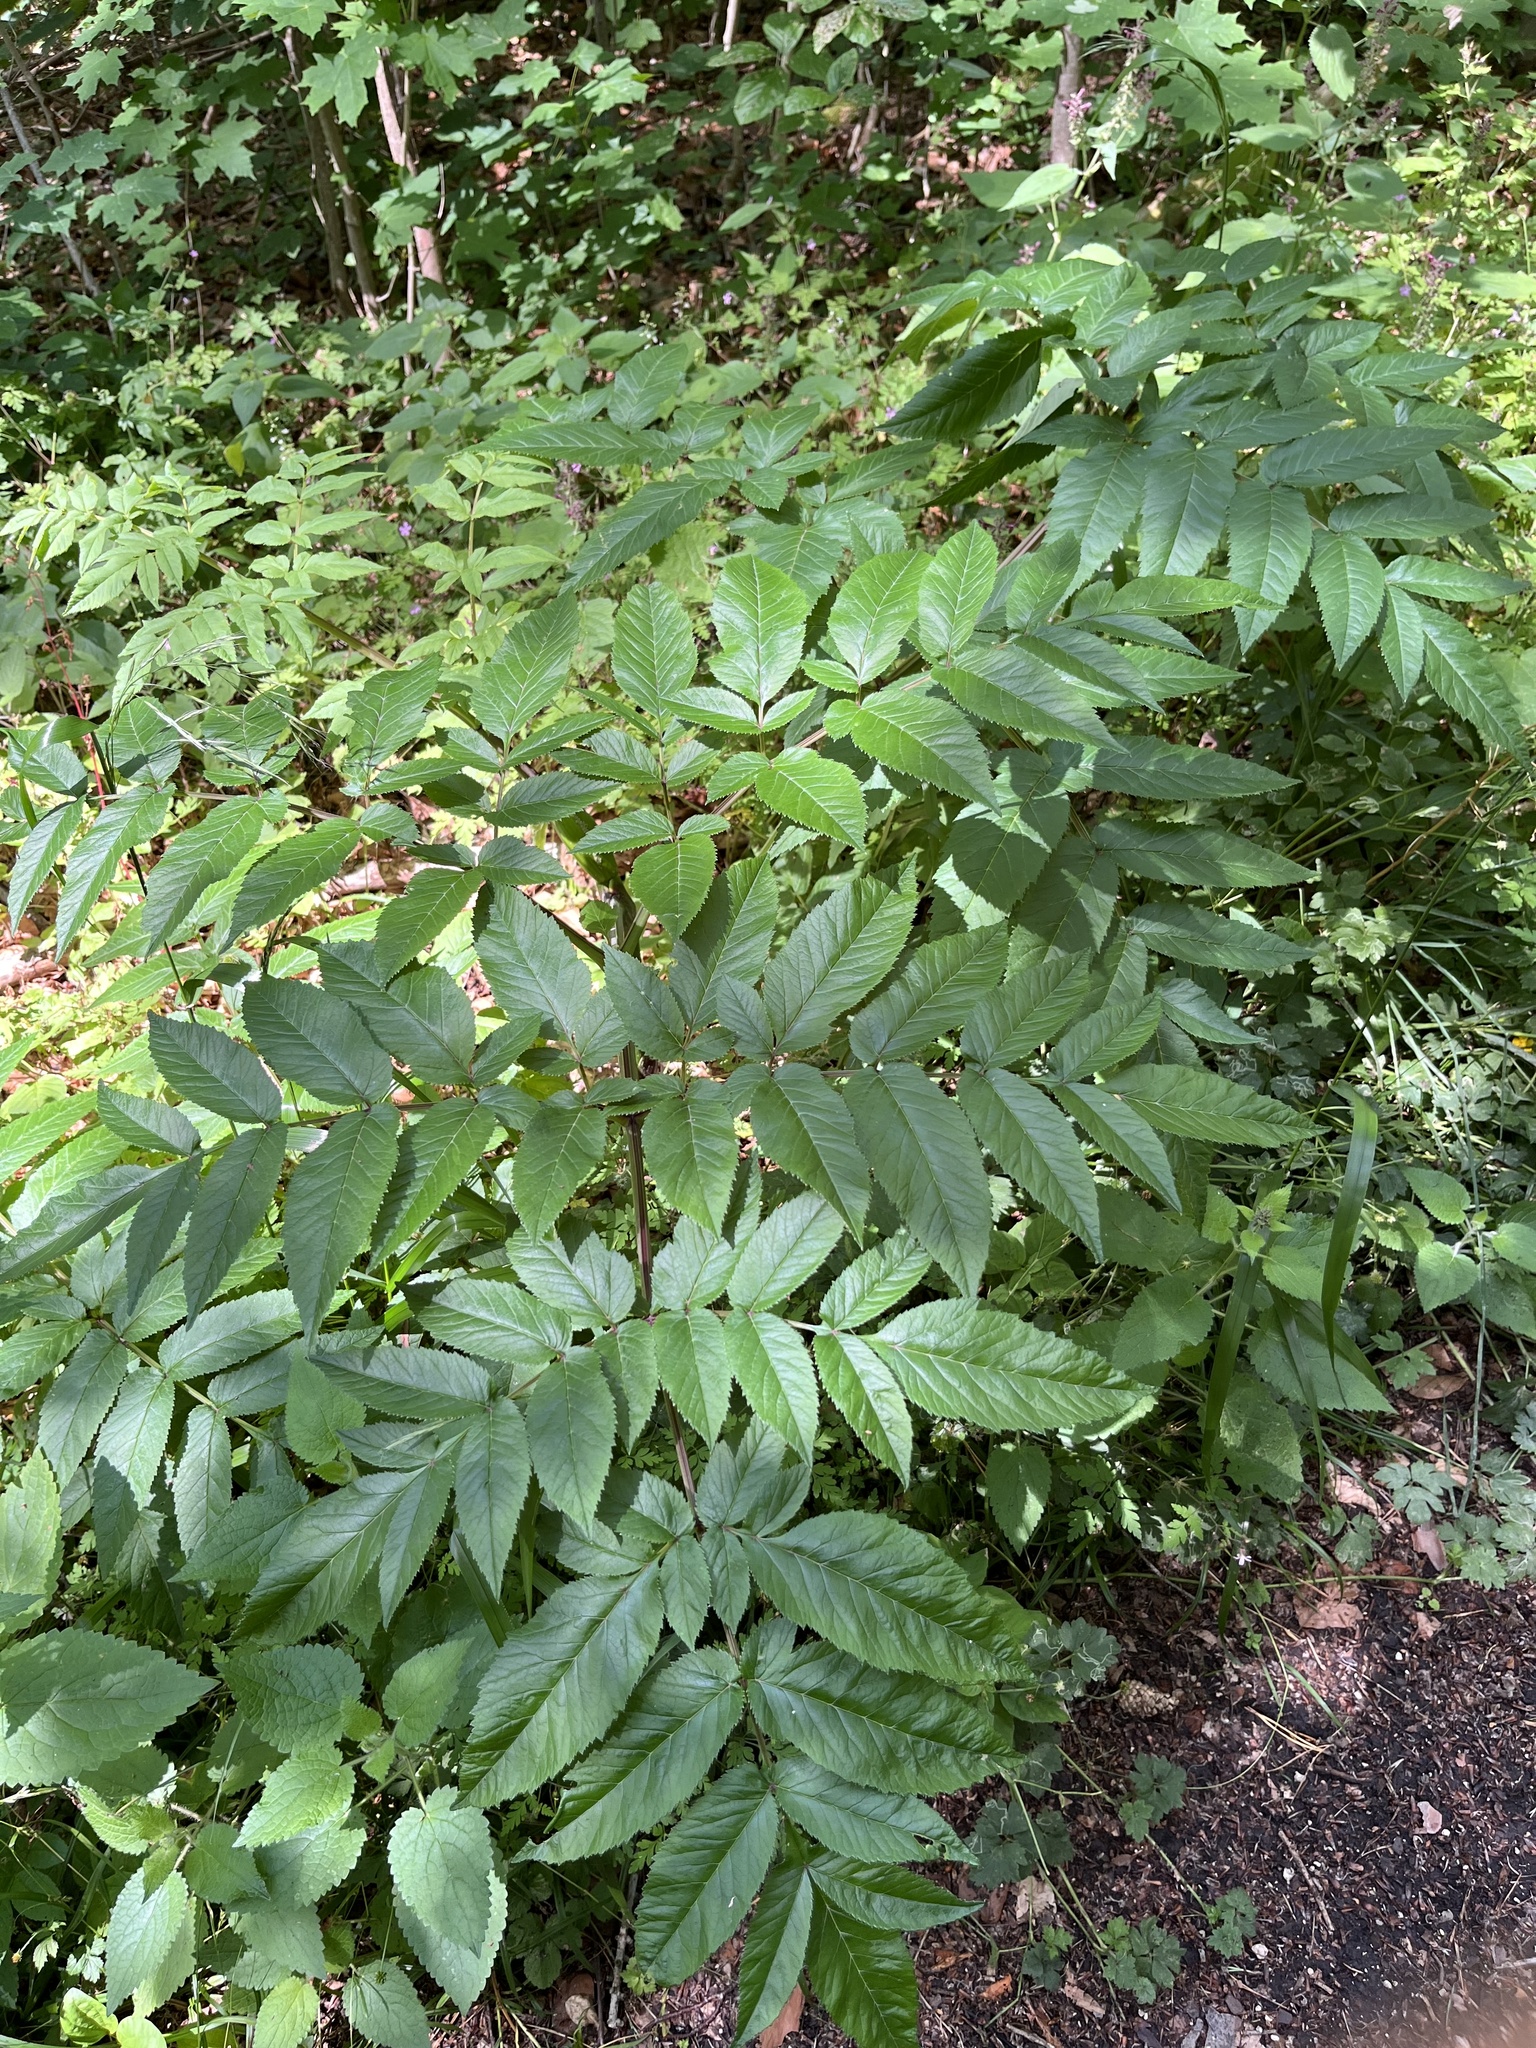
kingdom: Plantae
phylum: Tracheophyta
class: Magnoliopsida
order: Apiales
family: Apiaceae
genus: Angelica
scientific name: Angelica sylvestris
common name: Wild angelica
